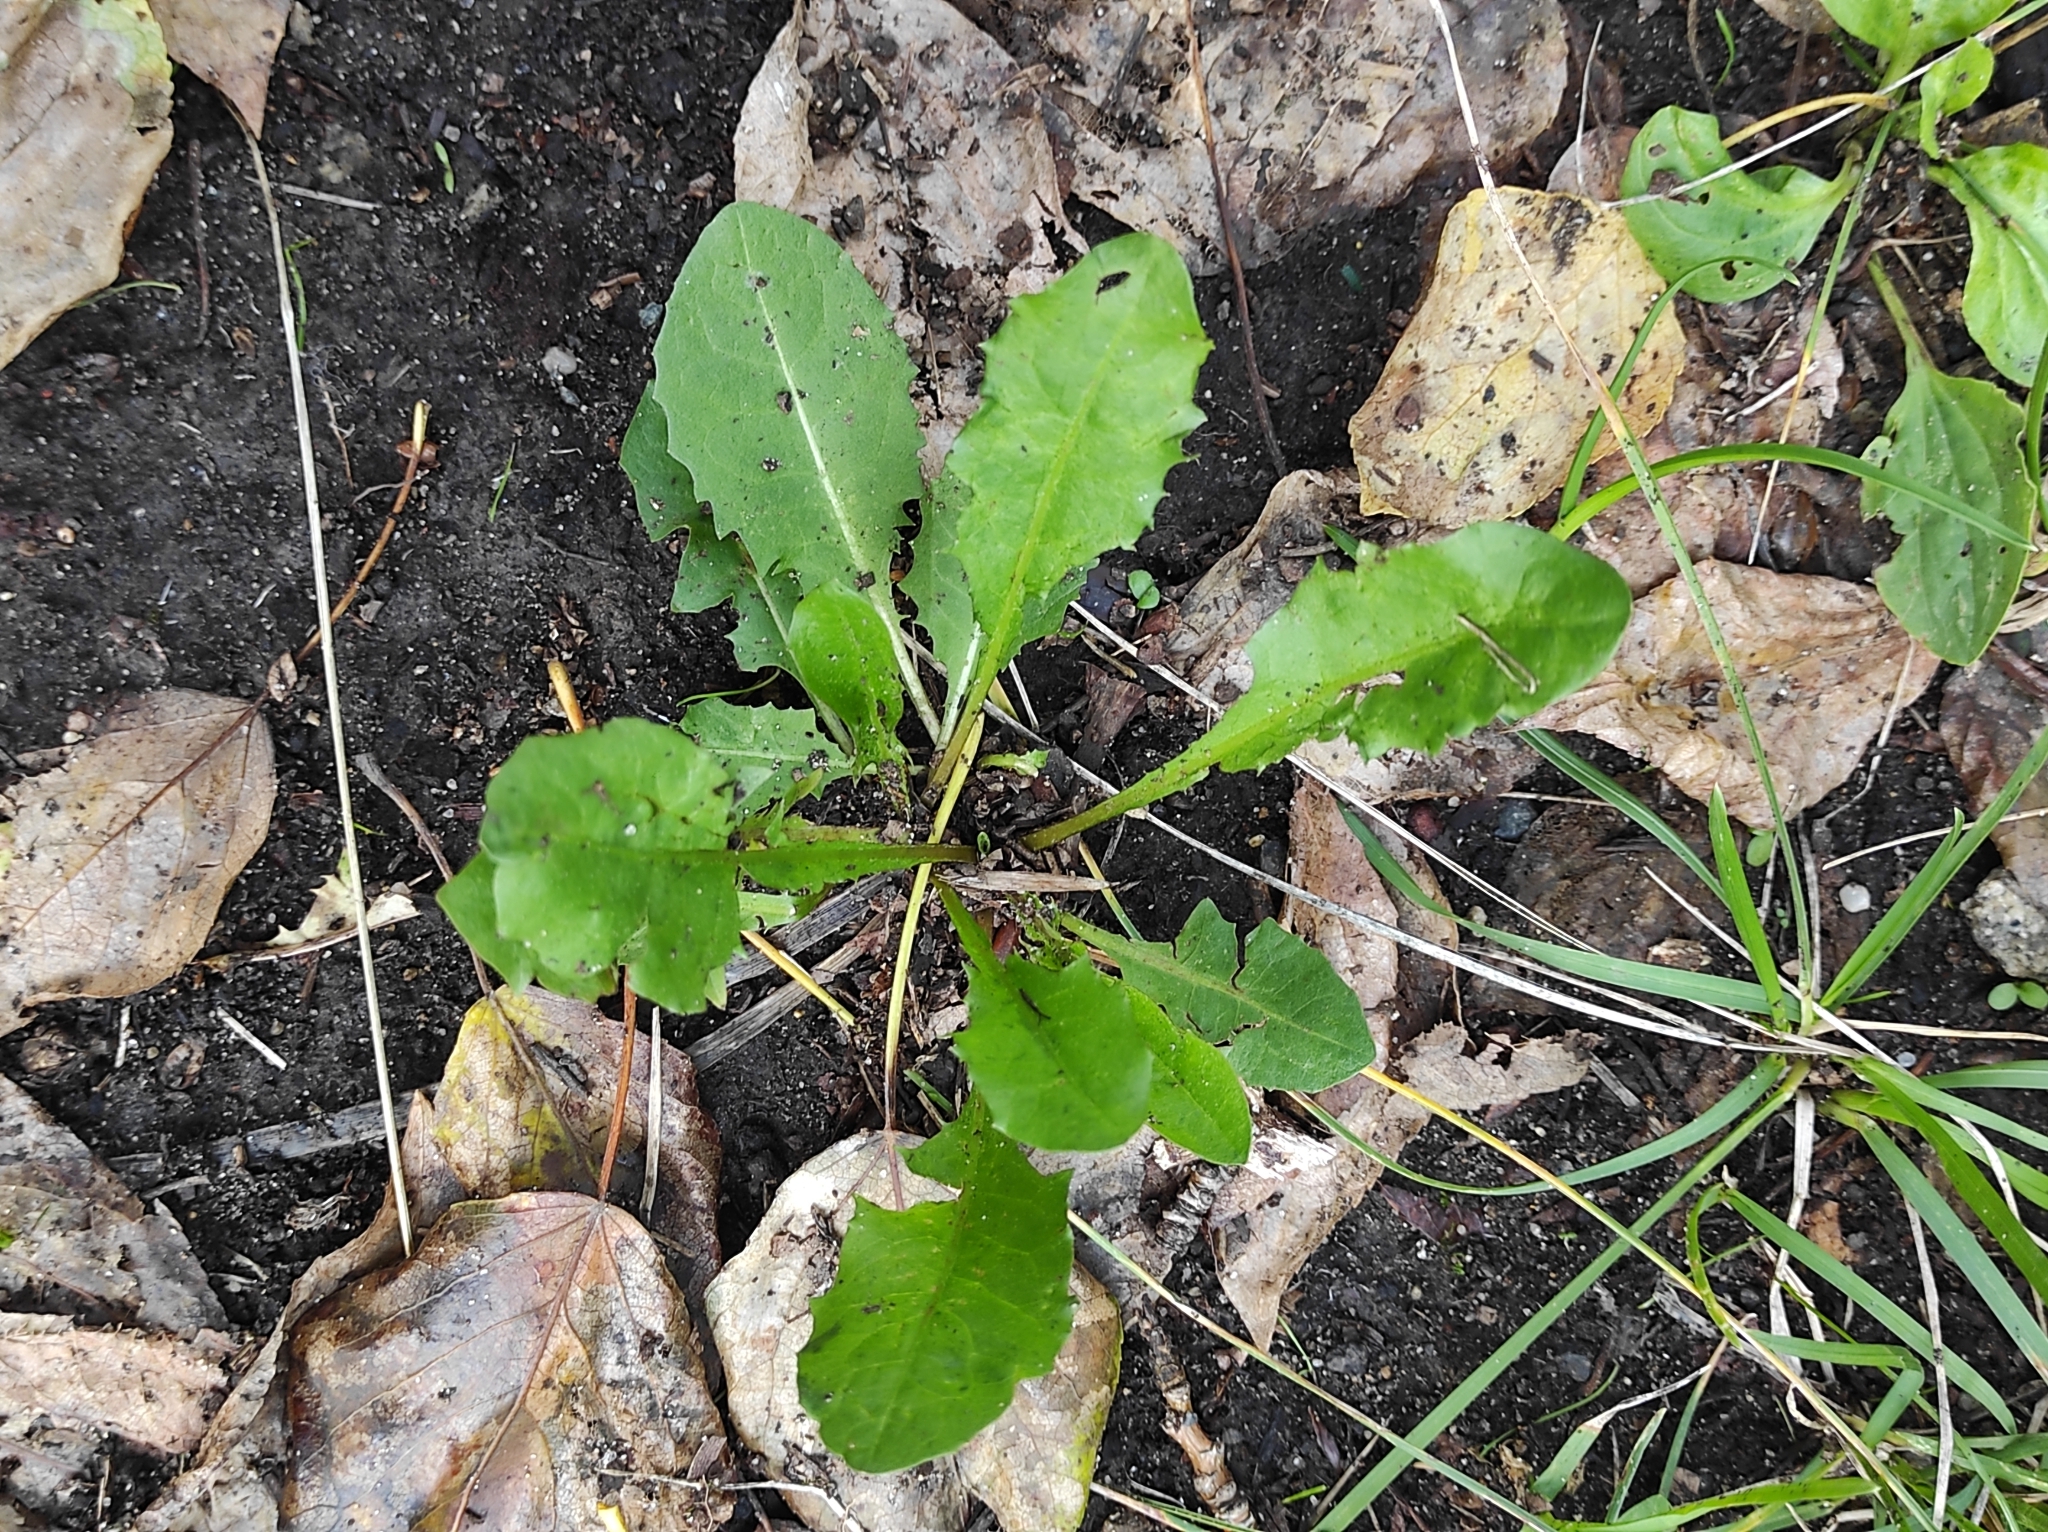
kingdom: Plantae
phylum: Tracheophyta
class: Magnoliopsida
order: Asterales
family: Asteraceae
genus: Taraxacum
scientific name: Taraxacum officinale
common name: Common dandelion
